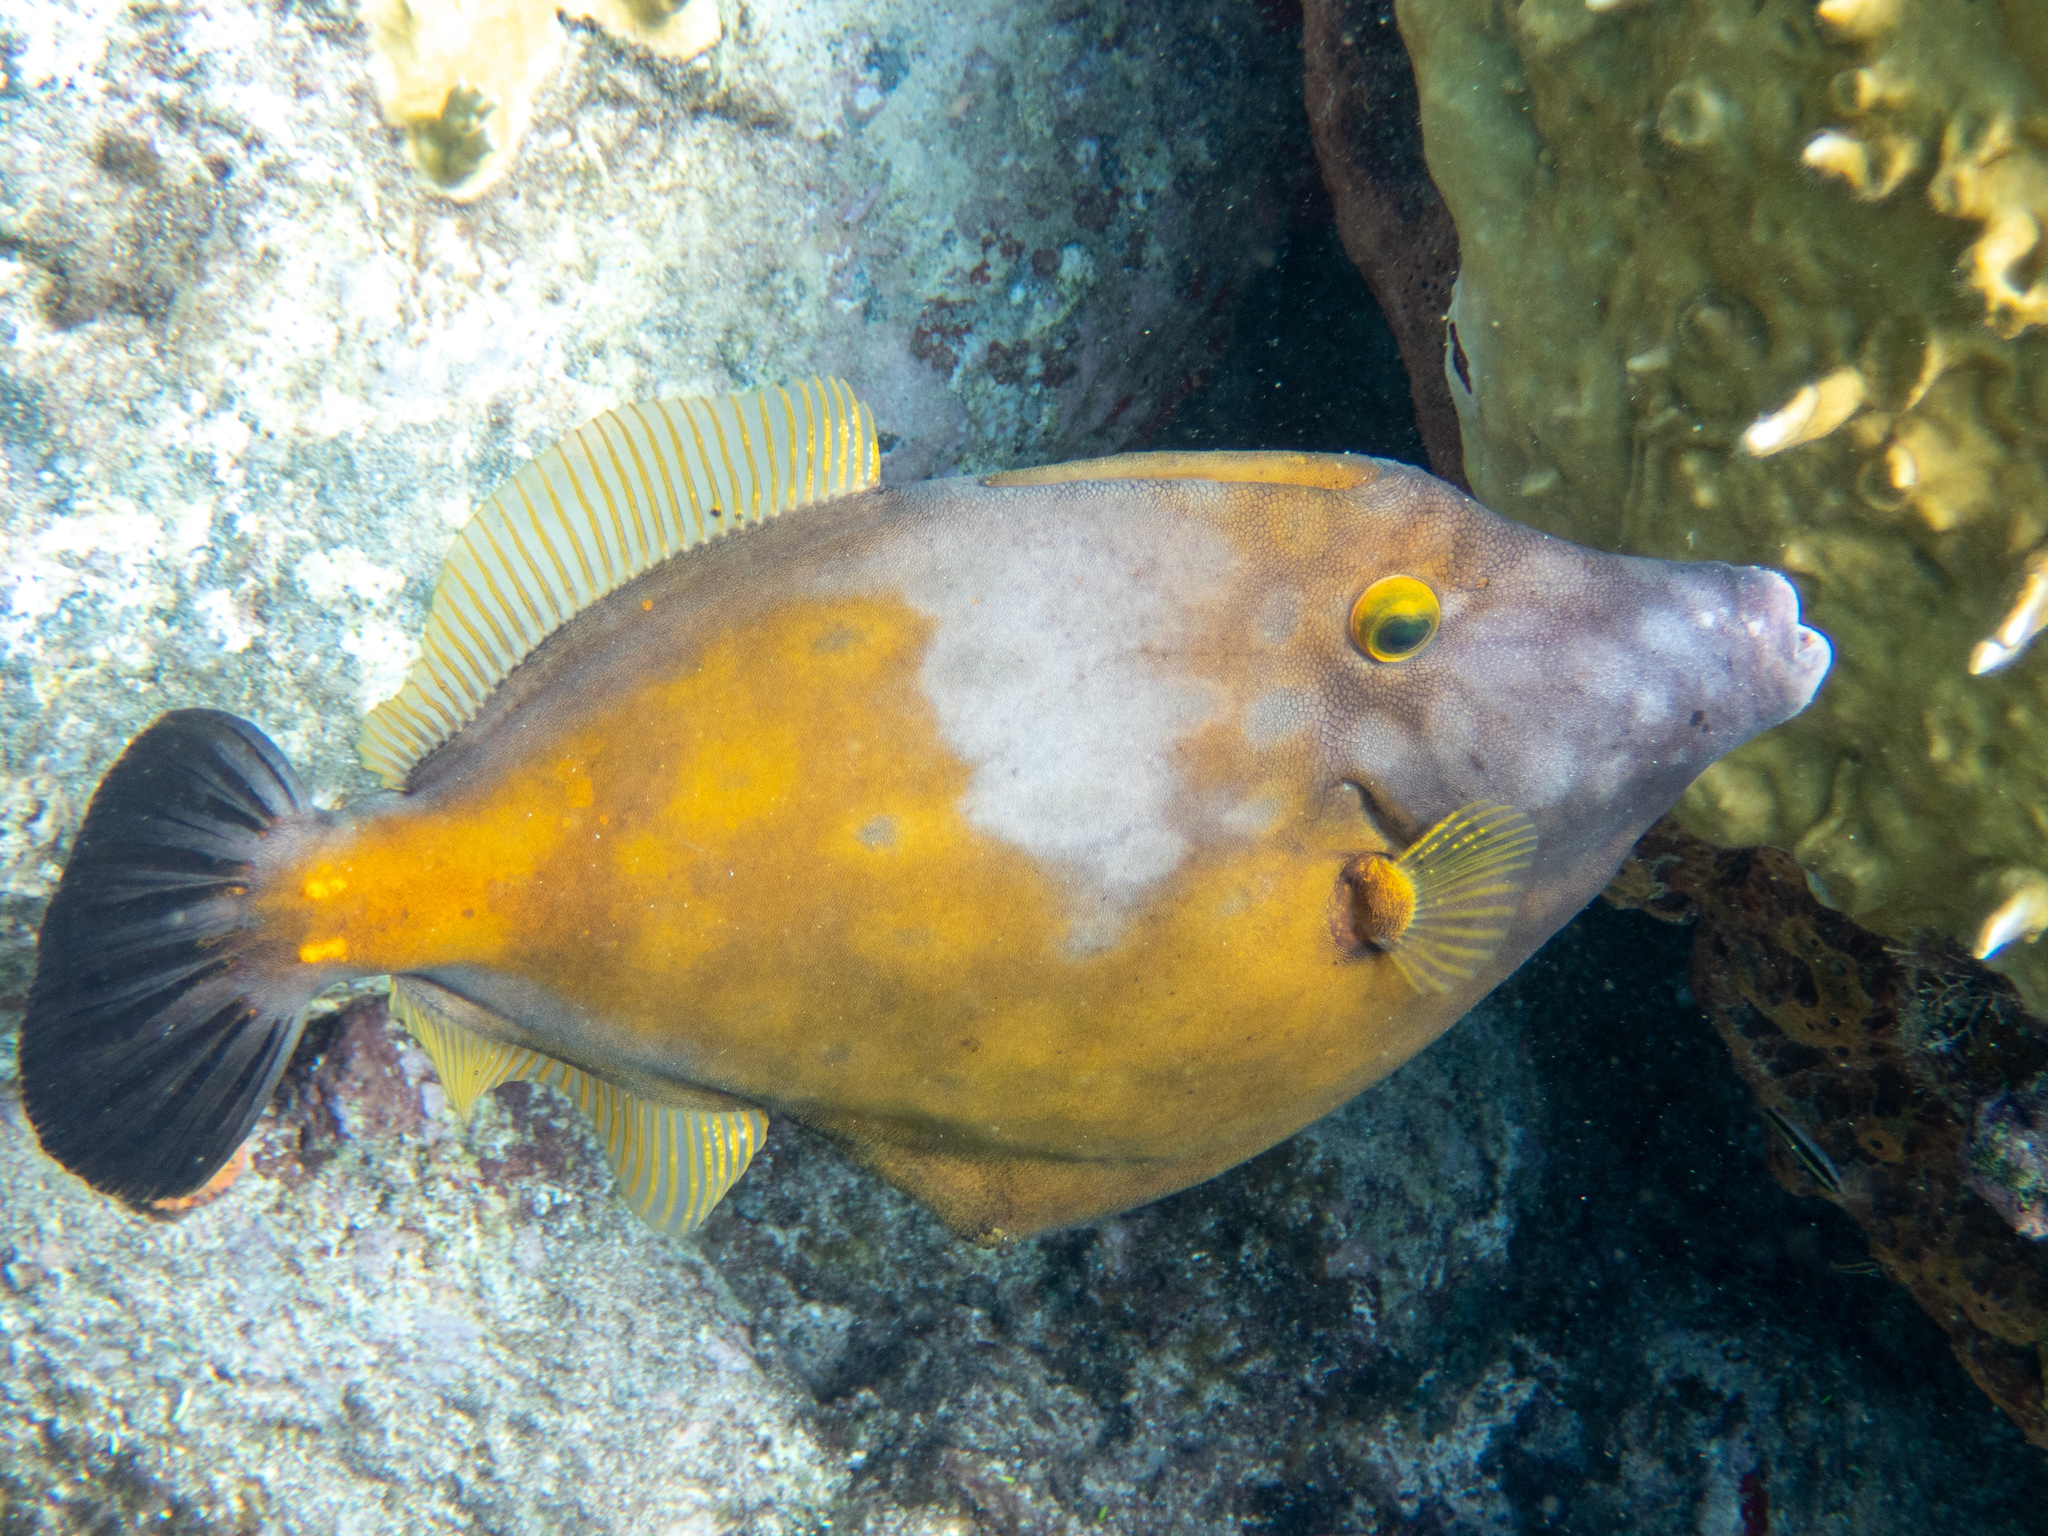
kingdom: Animalia
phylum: Chordata
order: Tetraodontiformes
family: Monacanthidae
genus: Cantherhines
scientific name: Cantherhines macrocerus
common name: Whitespotted filefish
